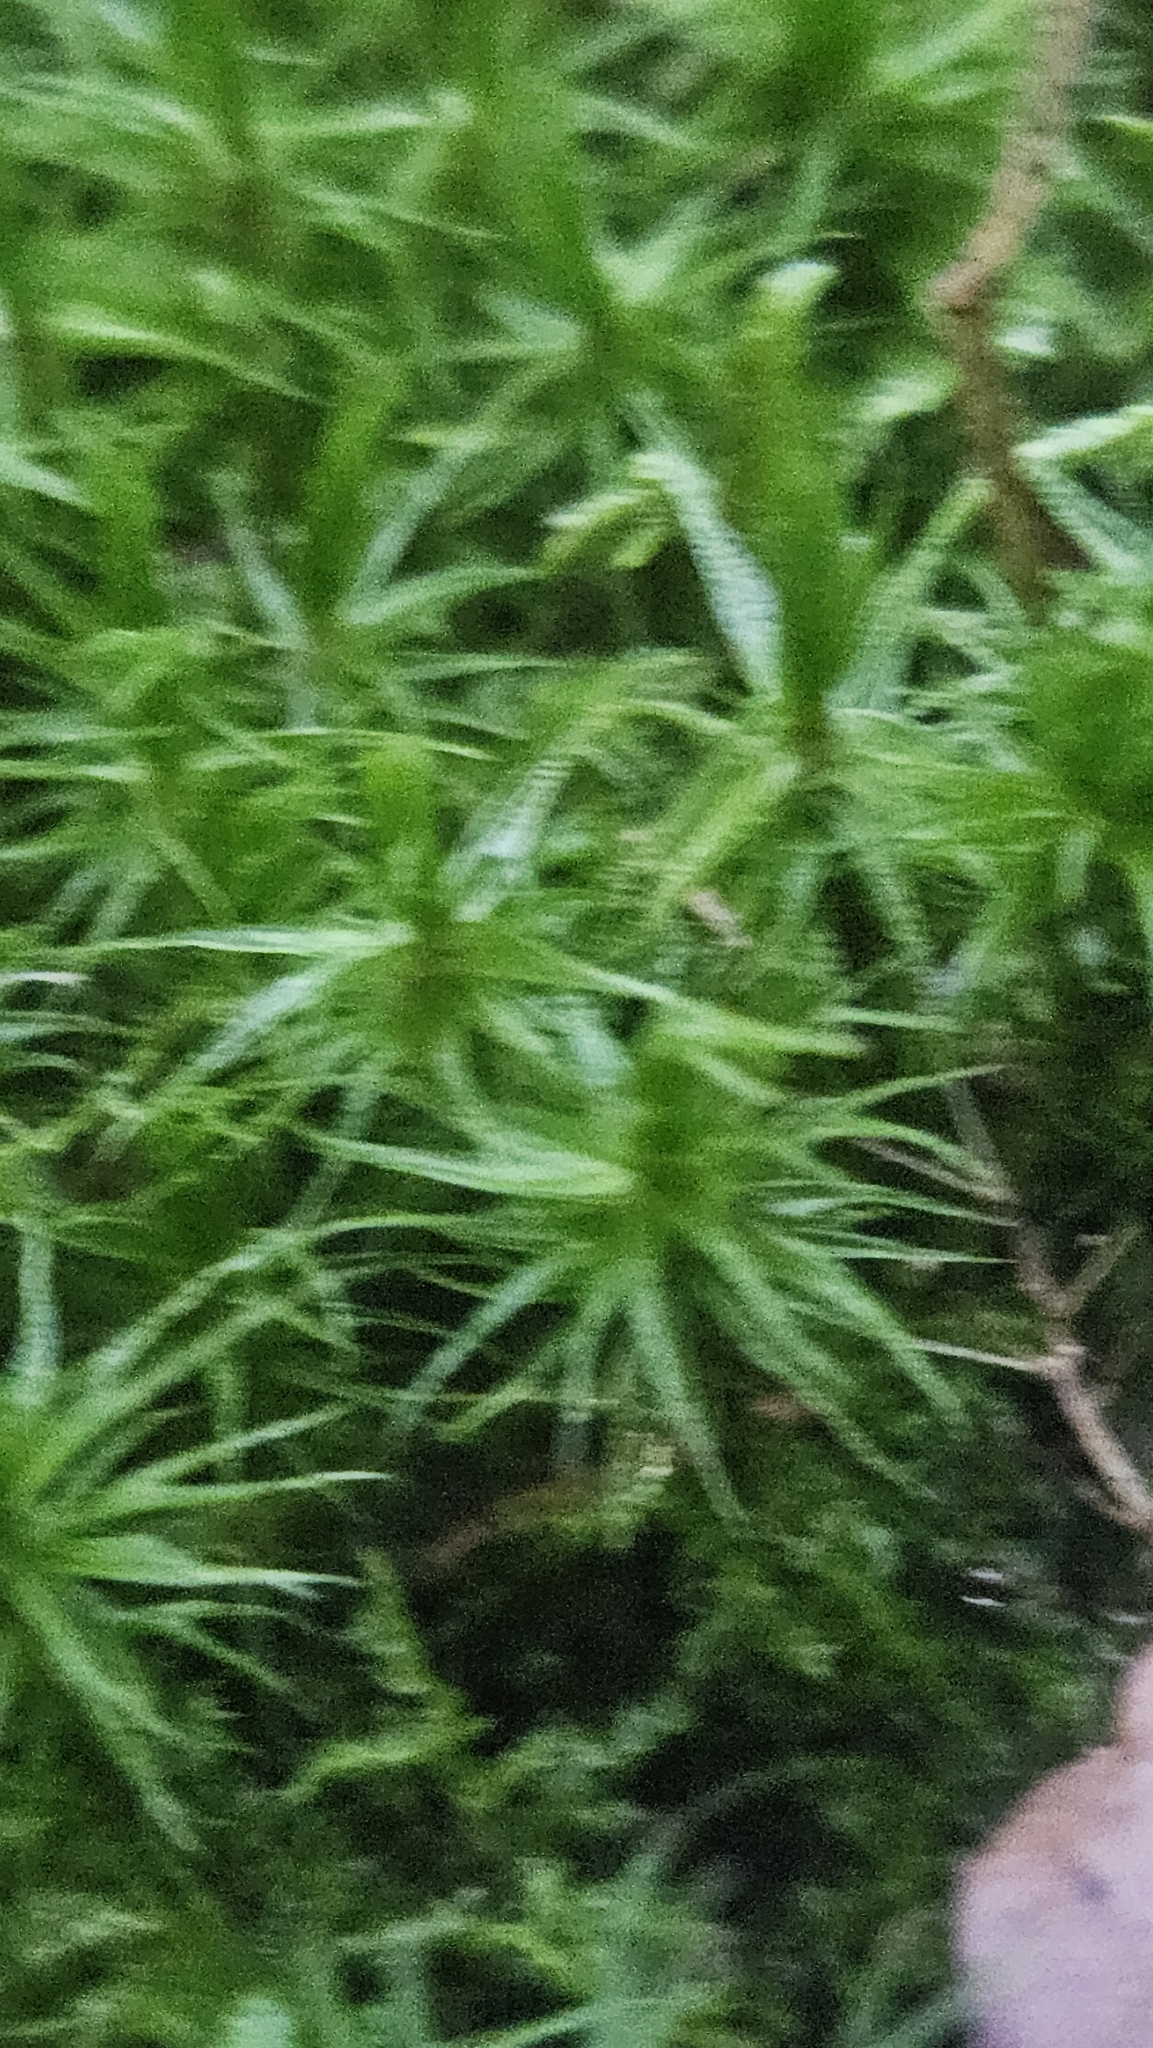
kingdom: Plantae
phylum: Bryophyta
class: Bryopsida
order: Dicranales
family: Dicranaceae
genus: Dicranum
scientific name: Dicranum polysetum
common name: Rugose fork-moss
